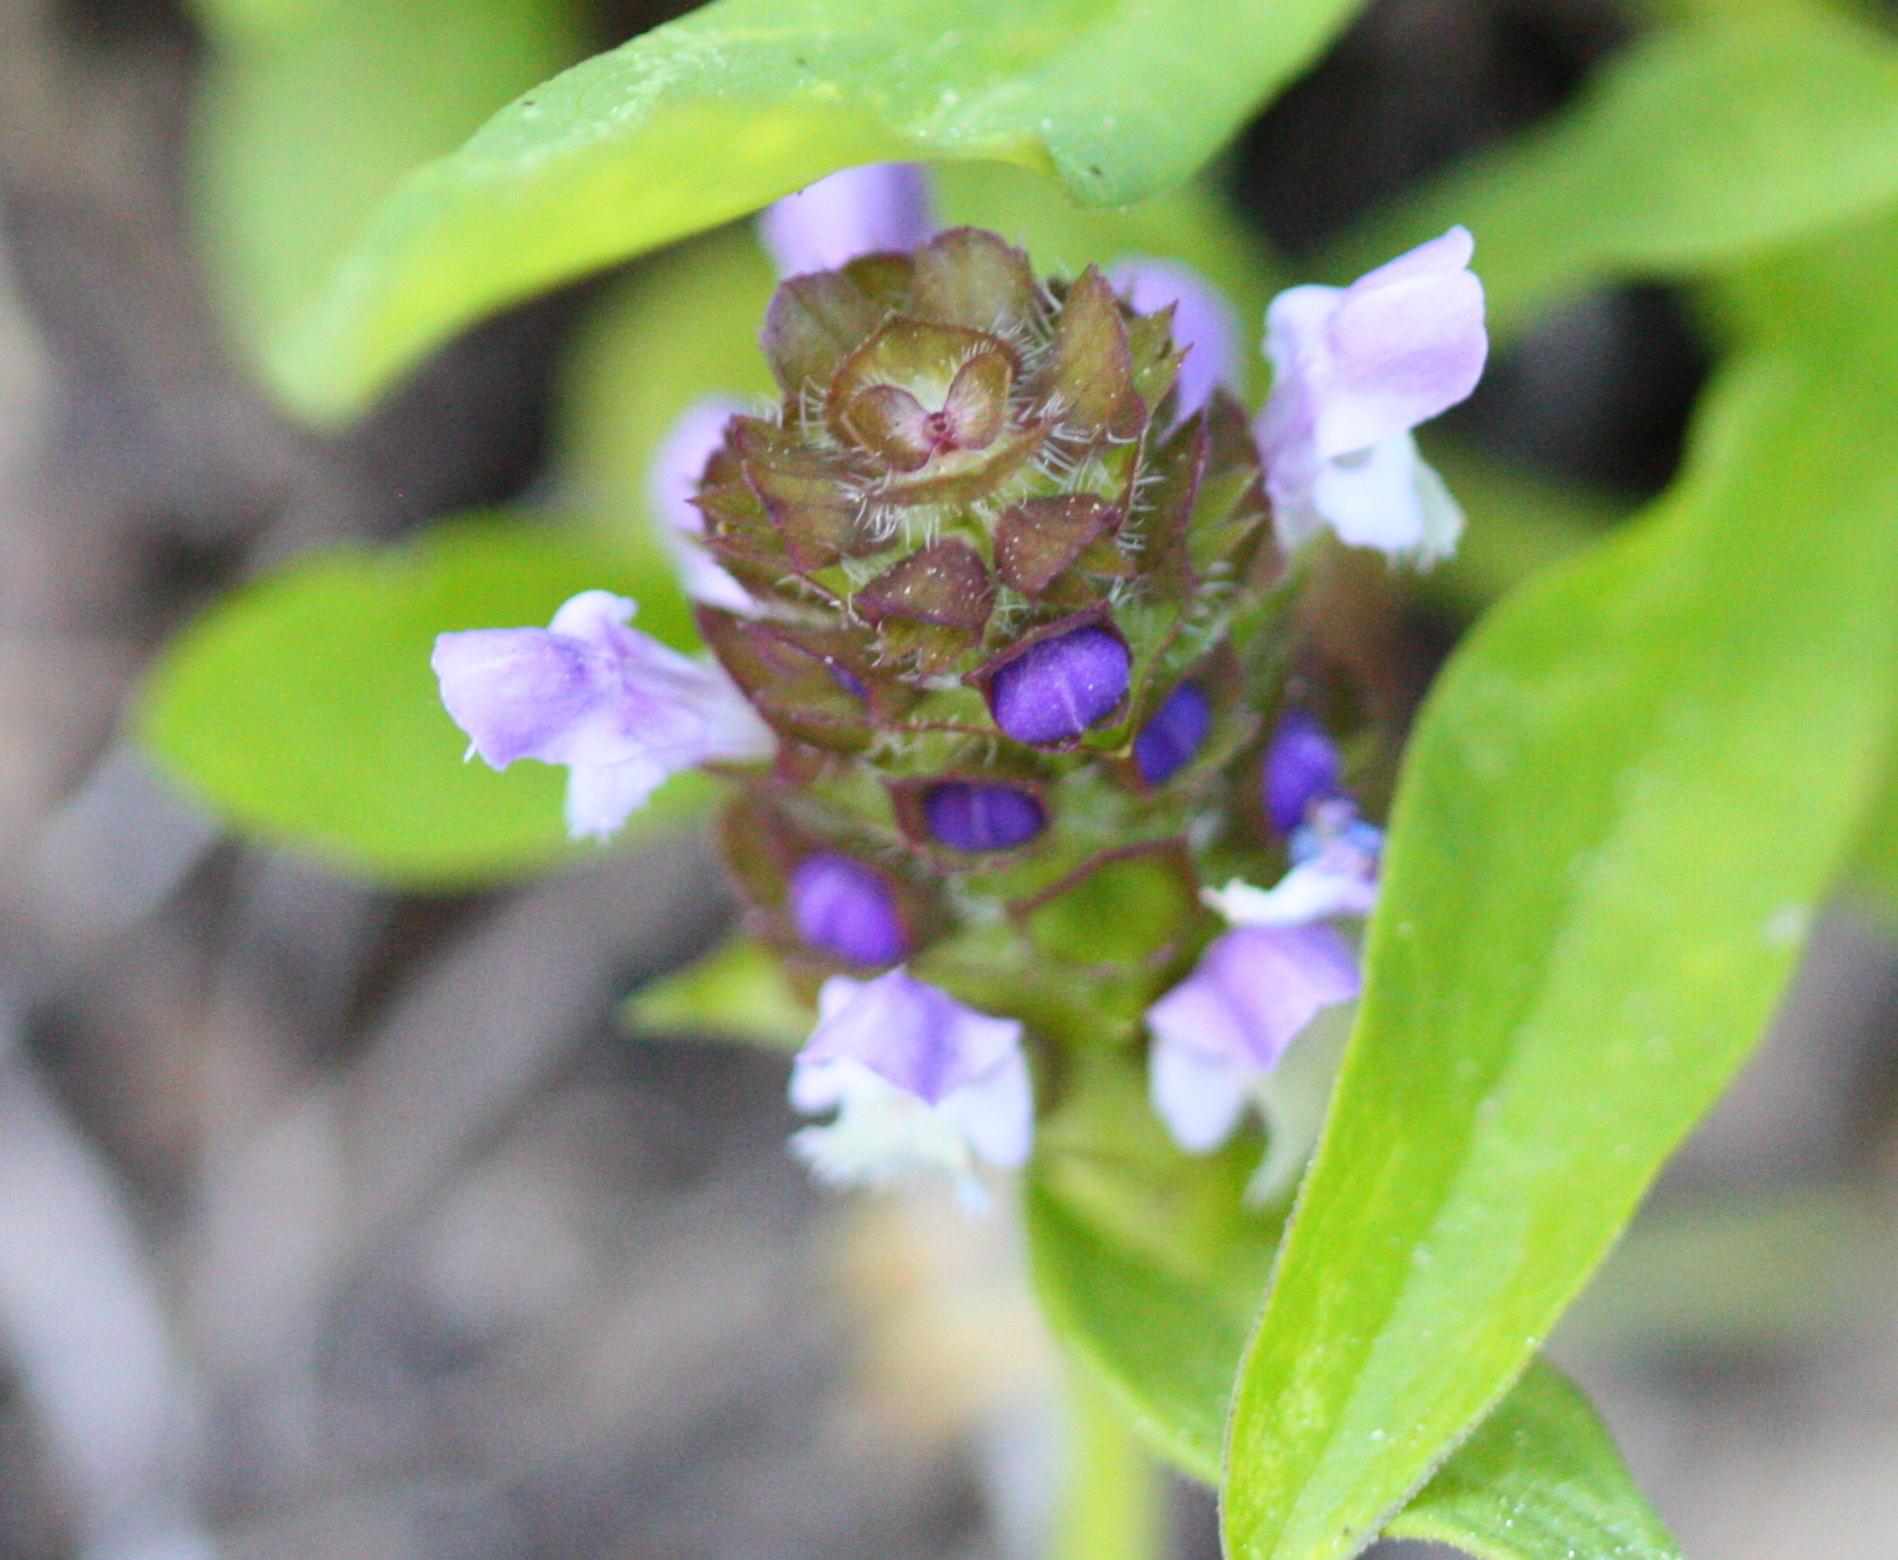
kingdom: Plantae
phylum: Tracheophyta
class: Magnoliopsida
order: Lamiales
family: Lamiaceae
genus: Prunella
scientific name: Prunella vulgaris
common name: Heal-all
